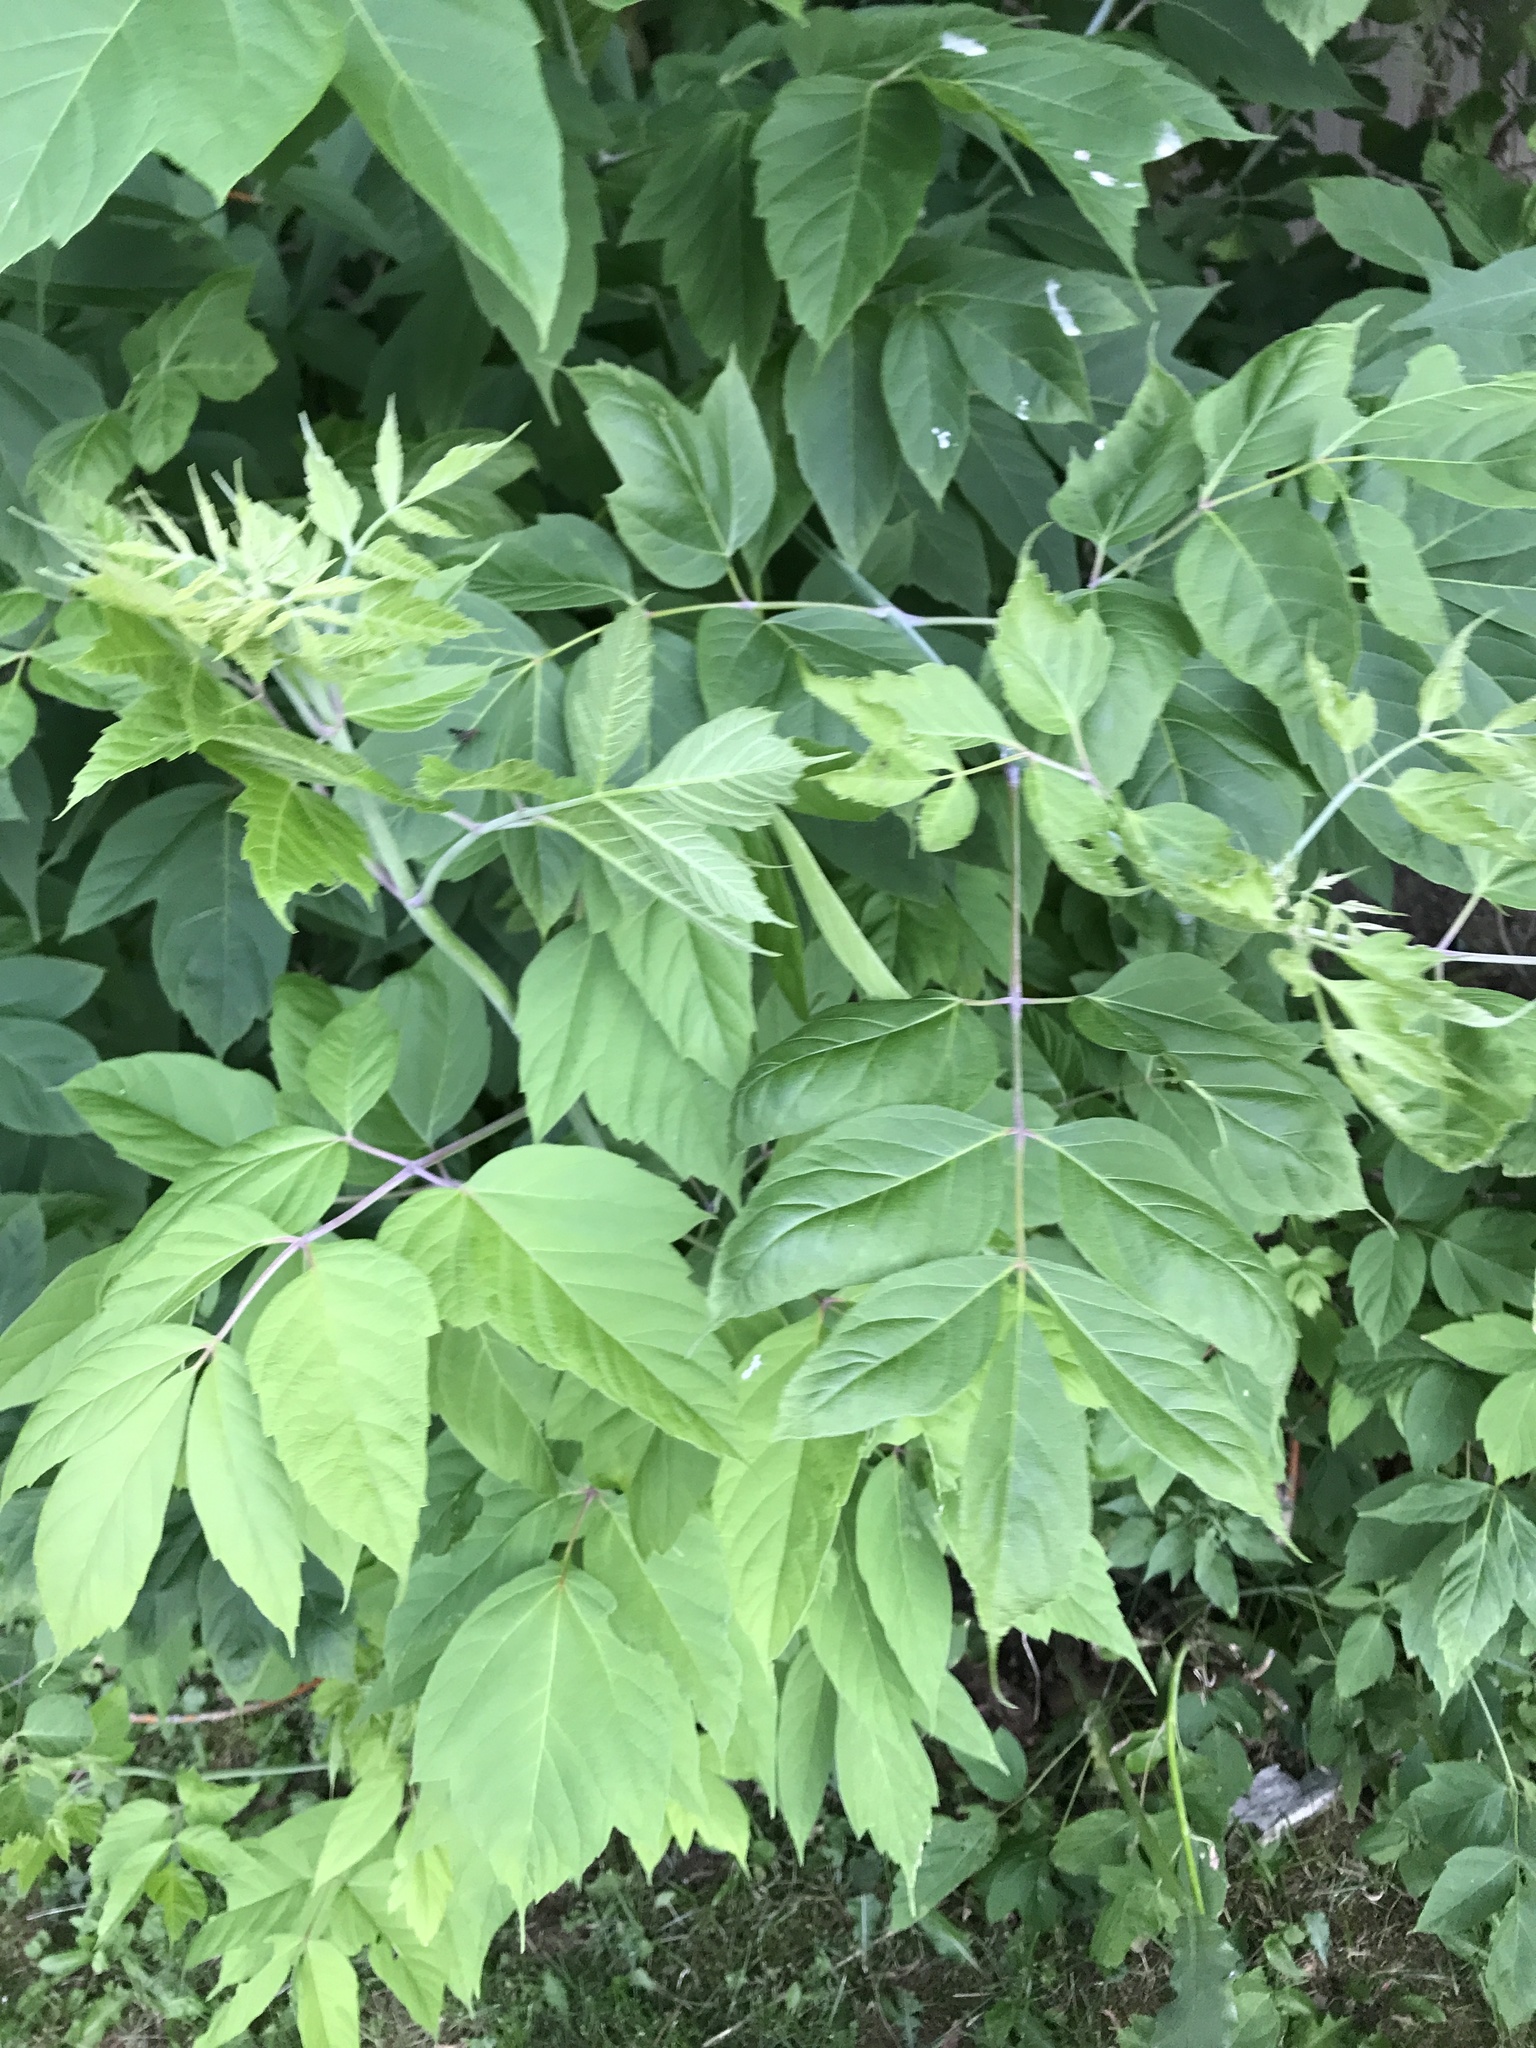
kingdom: Plantae
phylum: Tracheophyta
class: Magnoliopsida
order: Sapindales
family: Sapindaceae
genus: Acer
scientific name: Acer negundo
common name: Ashleaf maple
